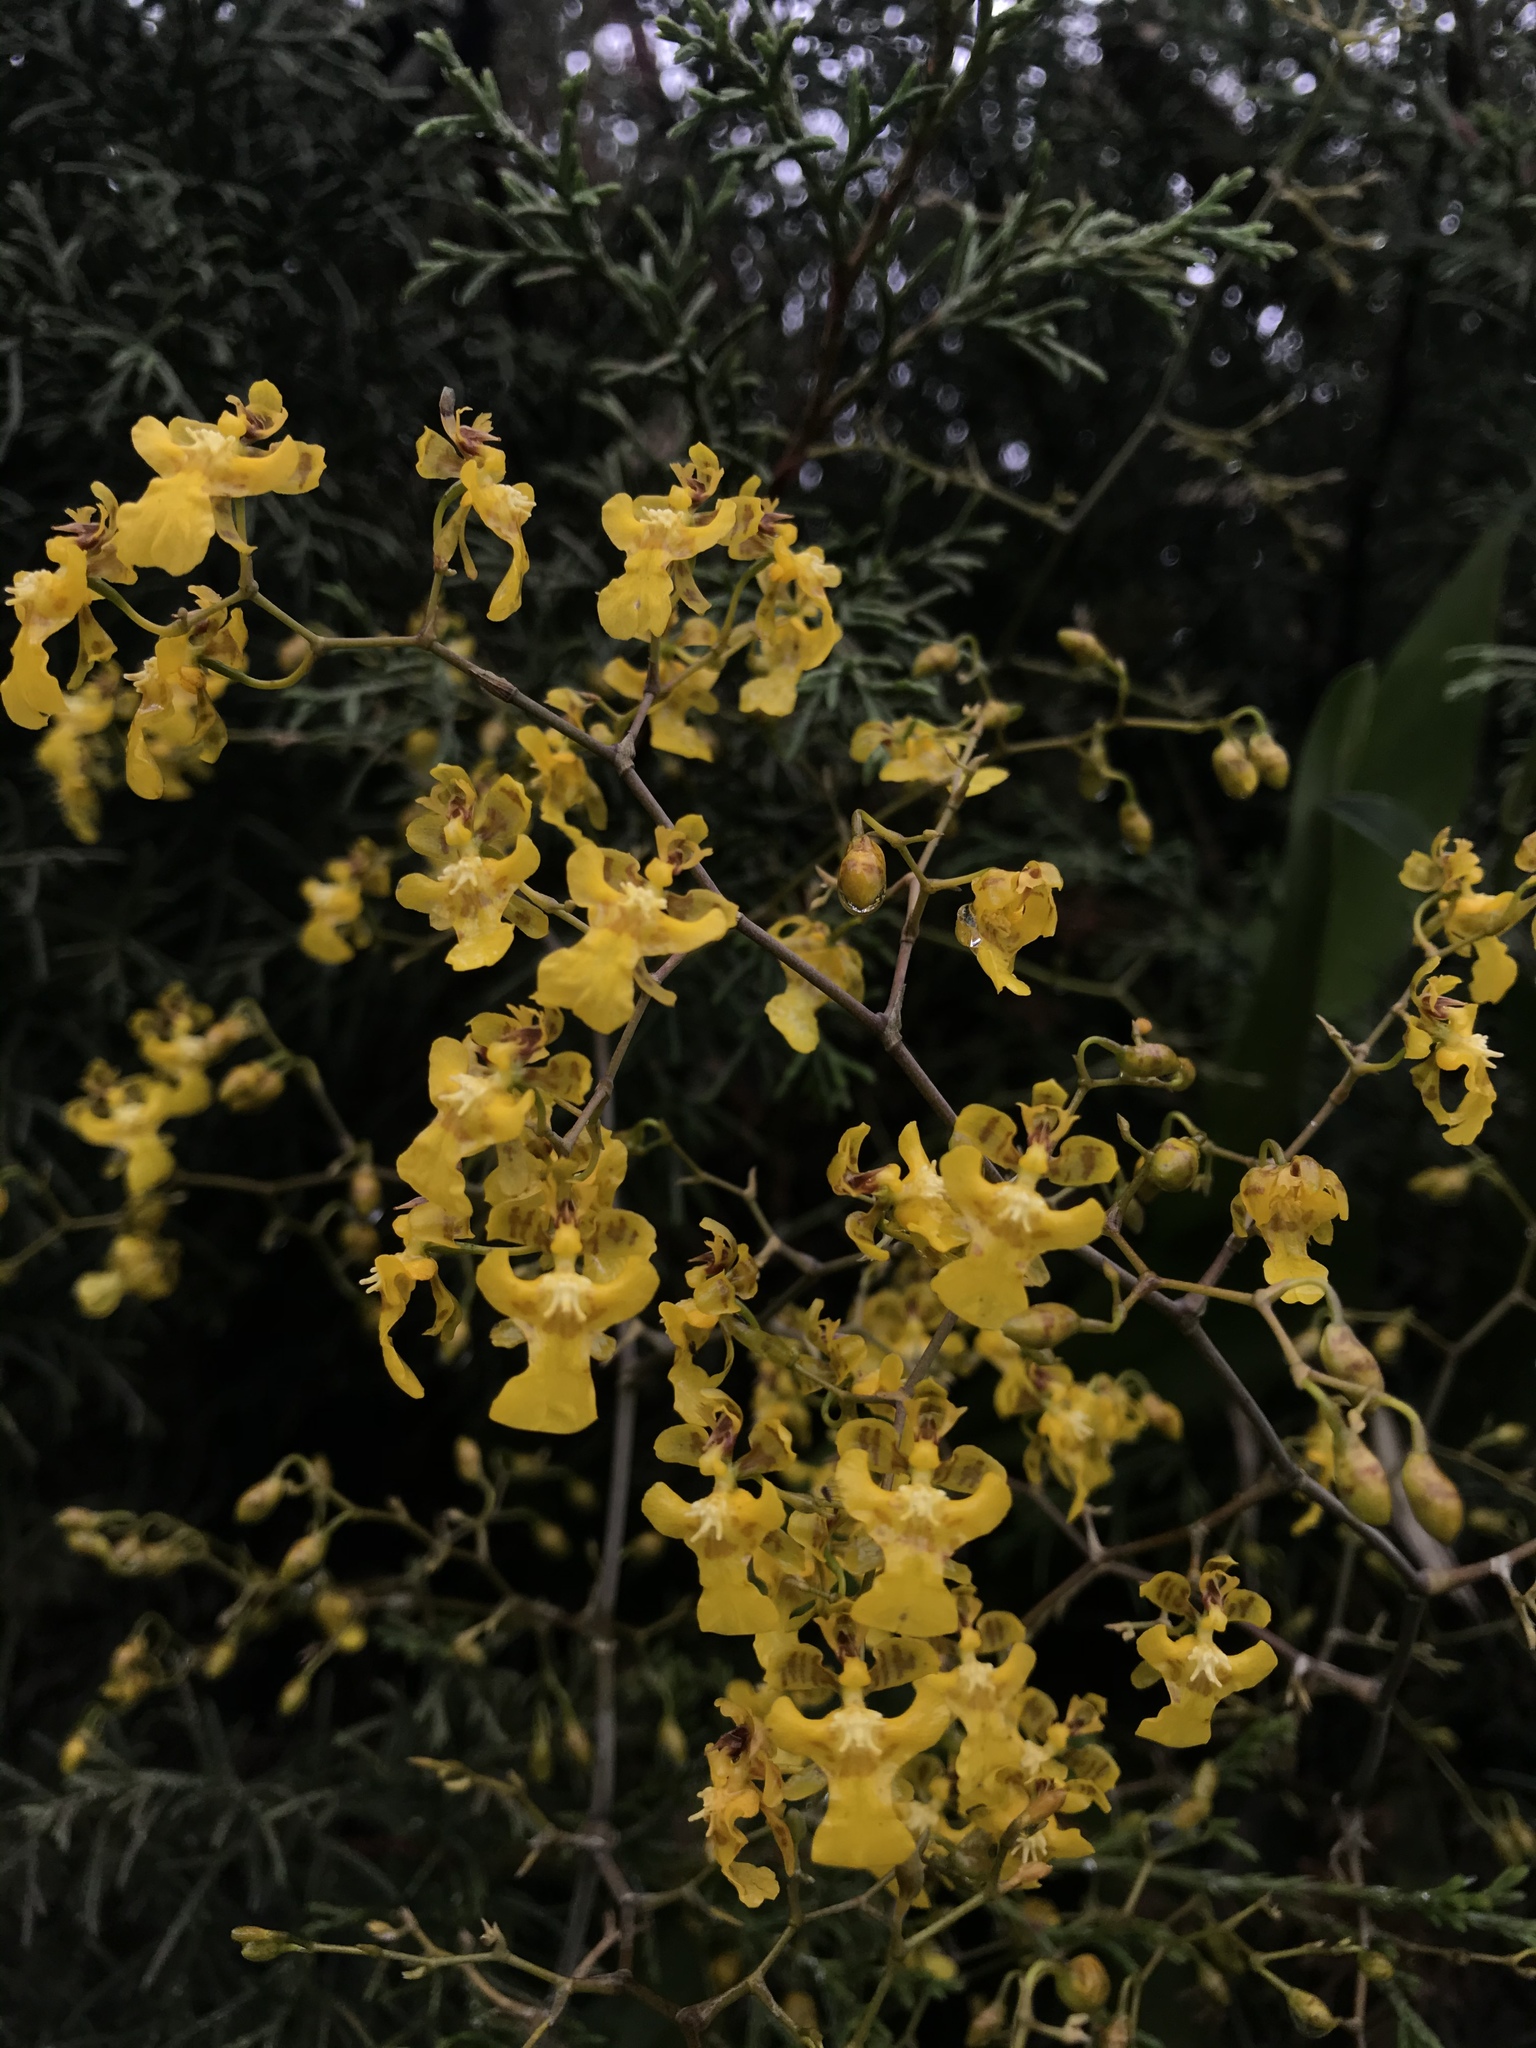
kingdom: Plantae
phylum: Tracheophyta
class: Liliopsida
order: Asparagales
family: Orchidaceae
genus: Oncidium
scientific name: Oncidium ornithorhynchum
